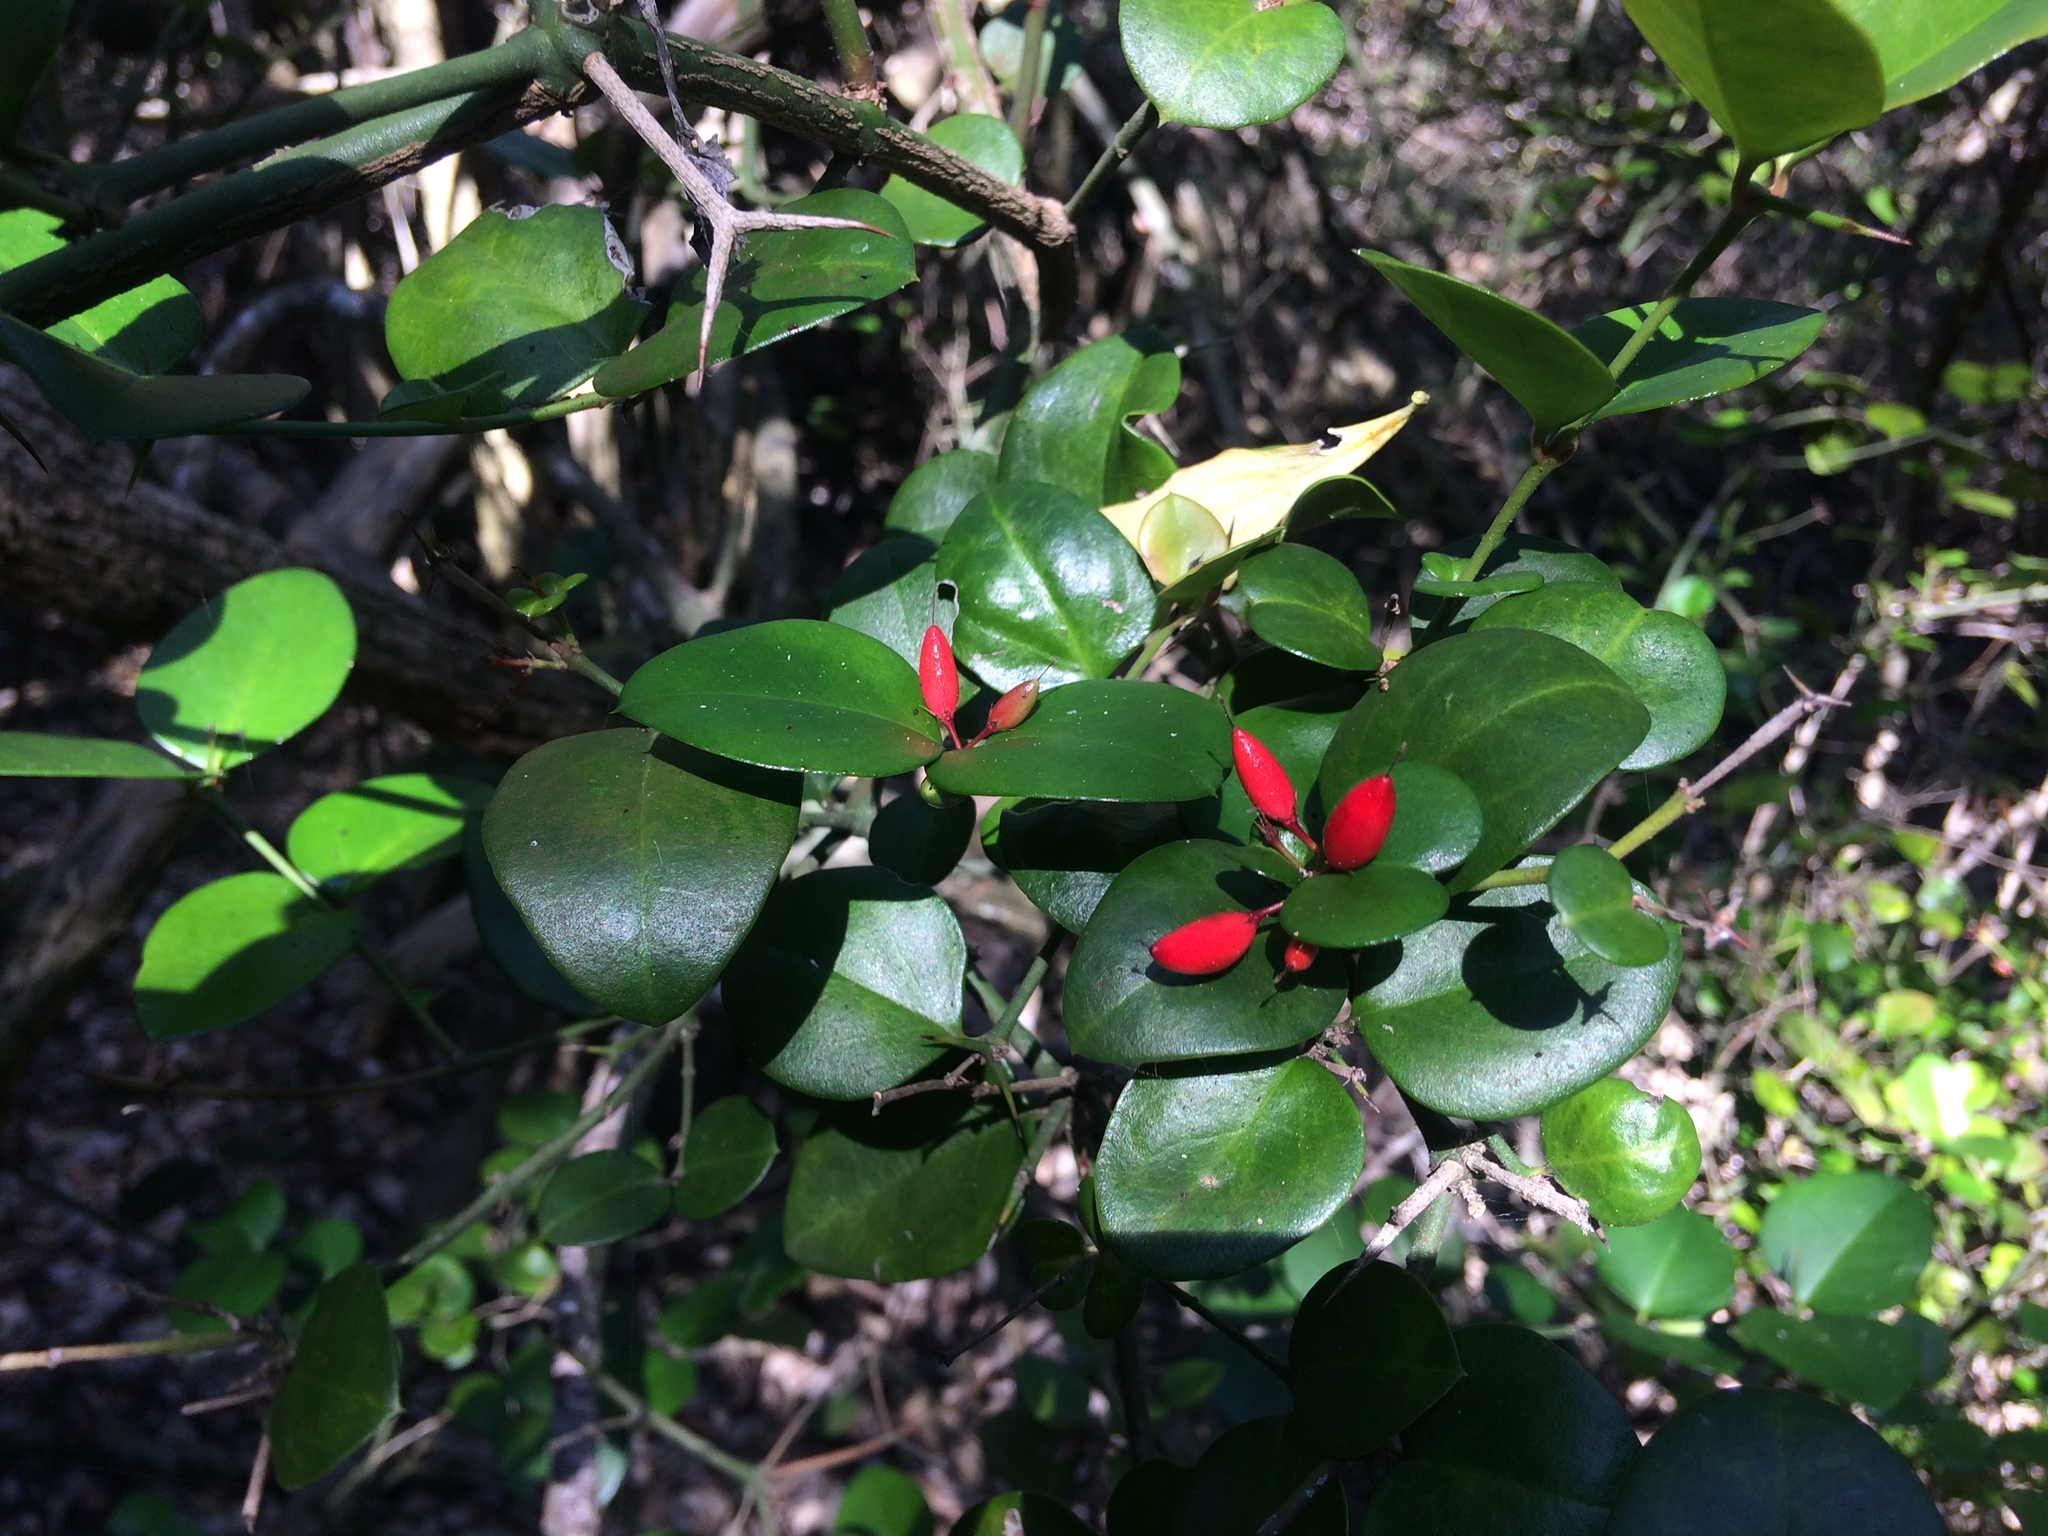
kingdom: Plantae
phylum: Tracheophyta
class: Magnoliopsida
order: Gentianales
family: Apocynaceae
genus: Carissa
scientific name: Carissa bispinosa
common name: Forest num-num
